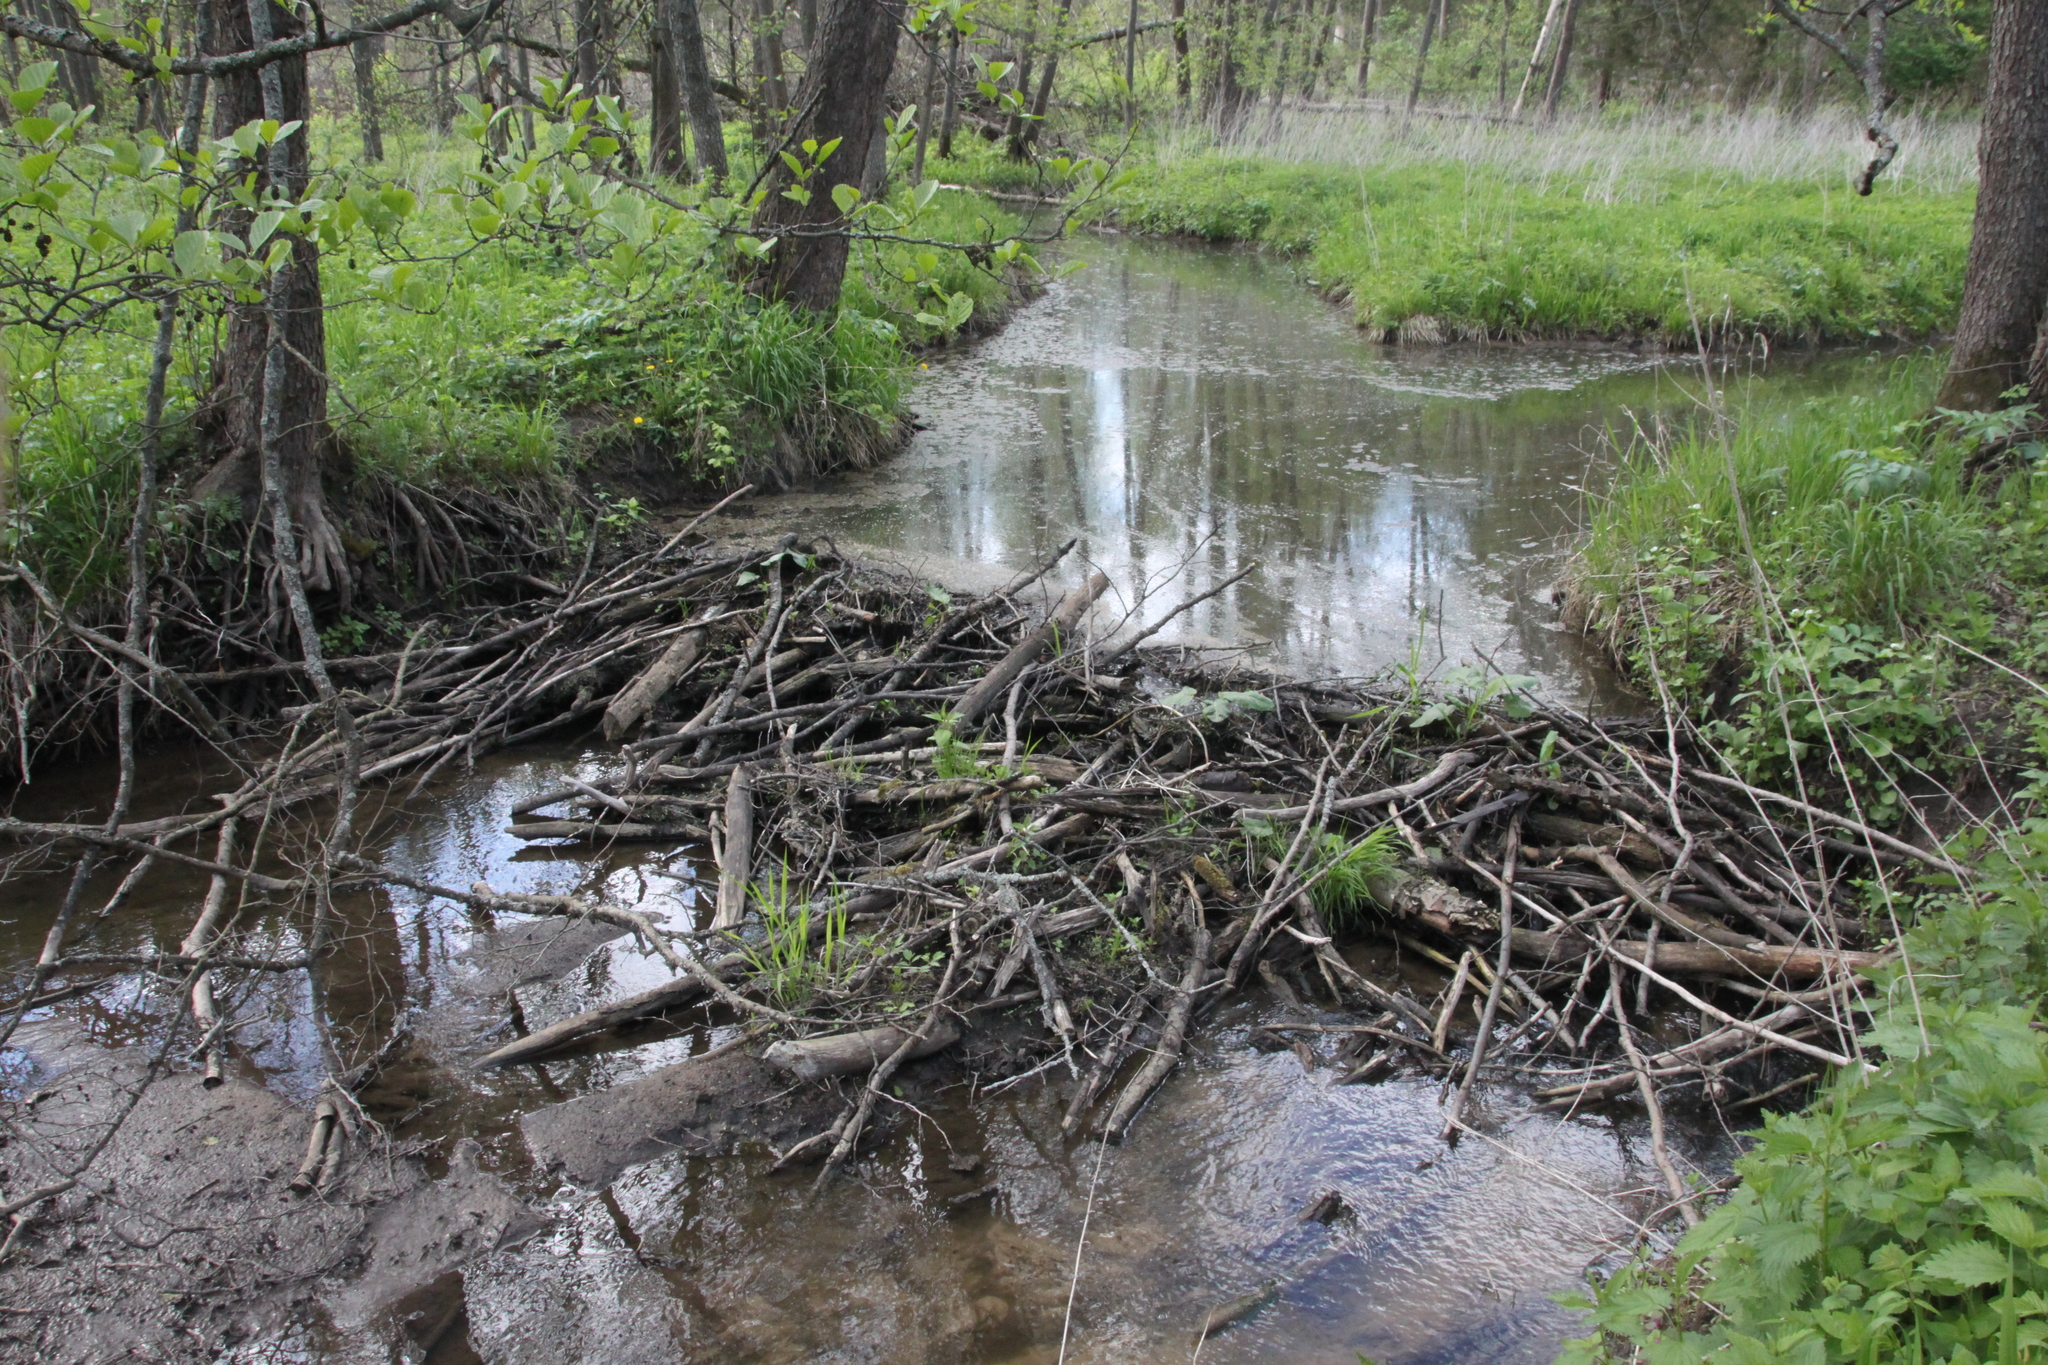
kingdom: Animalia
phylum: Chordata
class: Mammalia
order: Rodentia
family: Castoridae
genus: Castor
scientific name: Castor fiber
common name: Eurasian beaver
